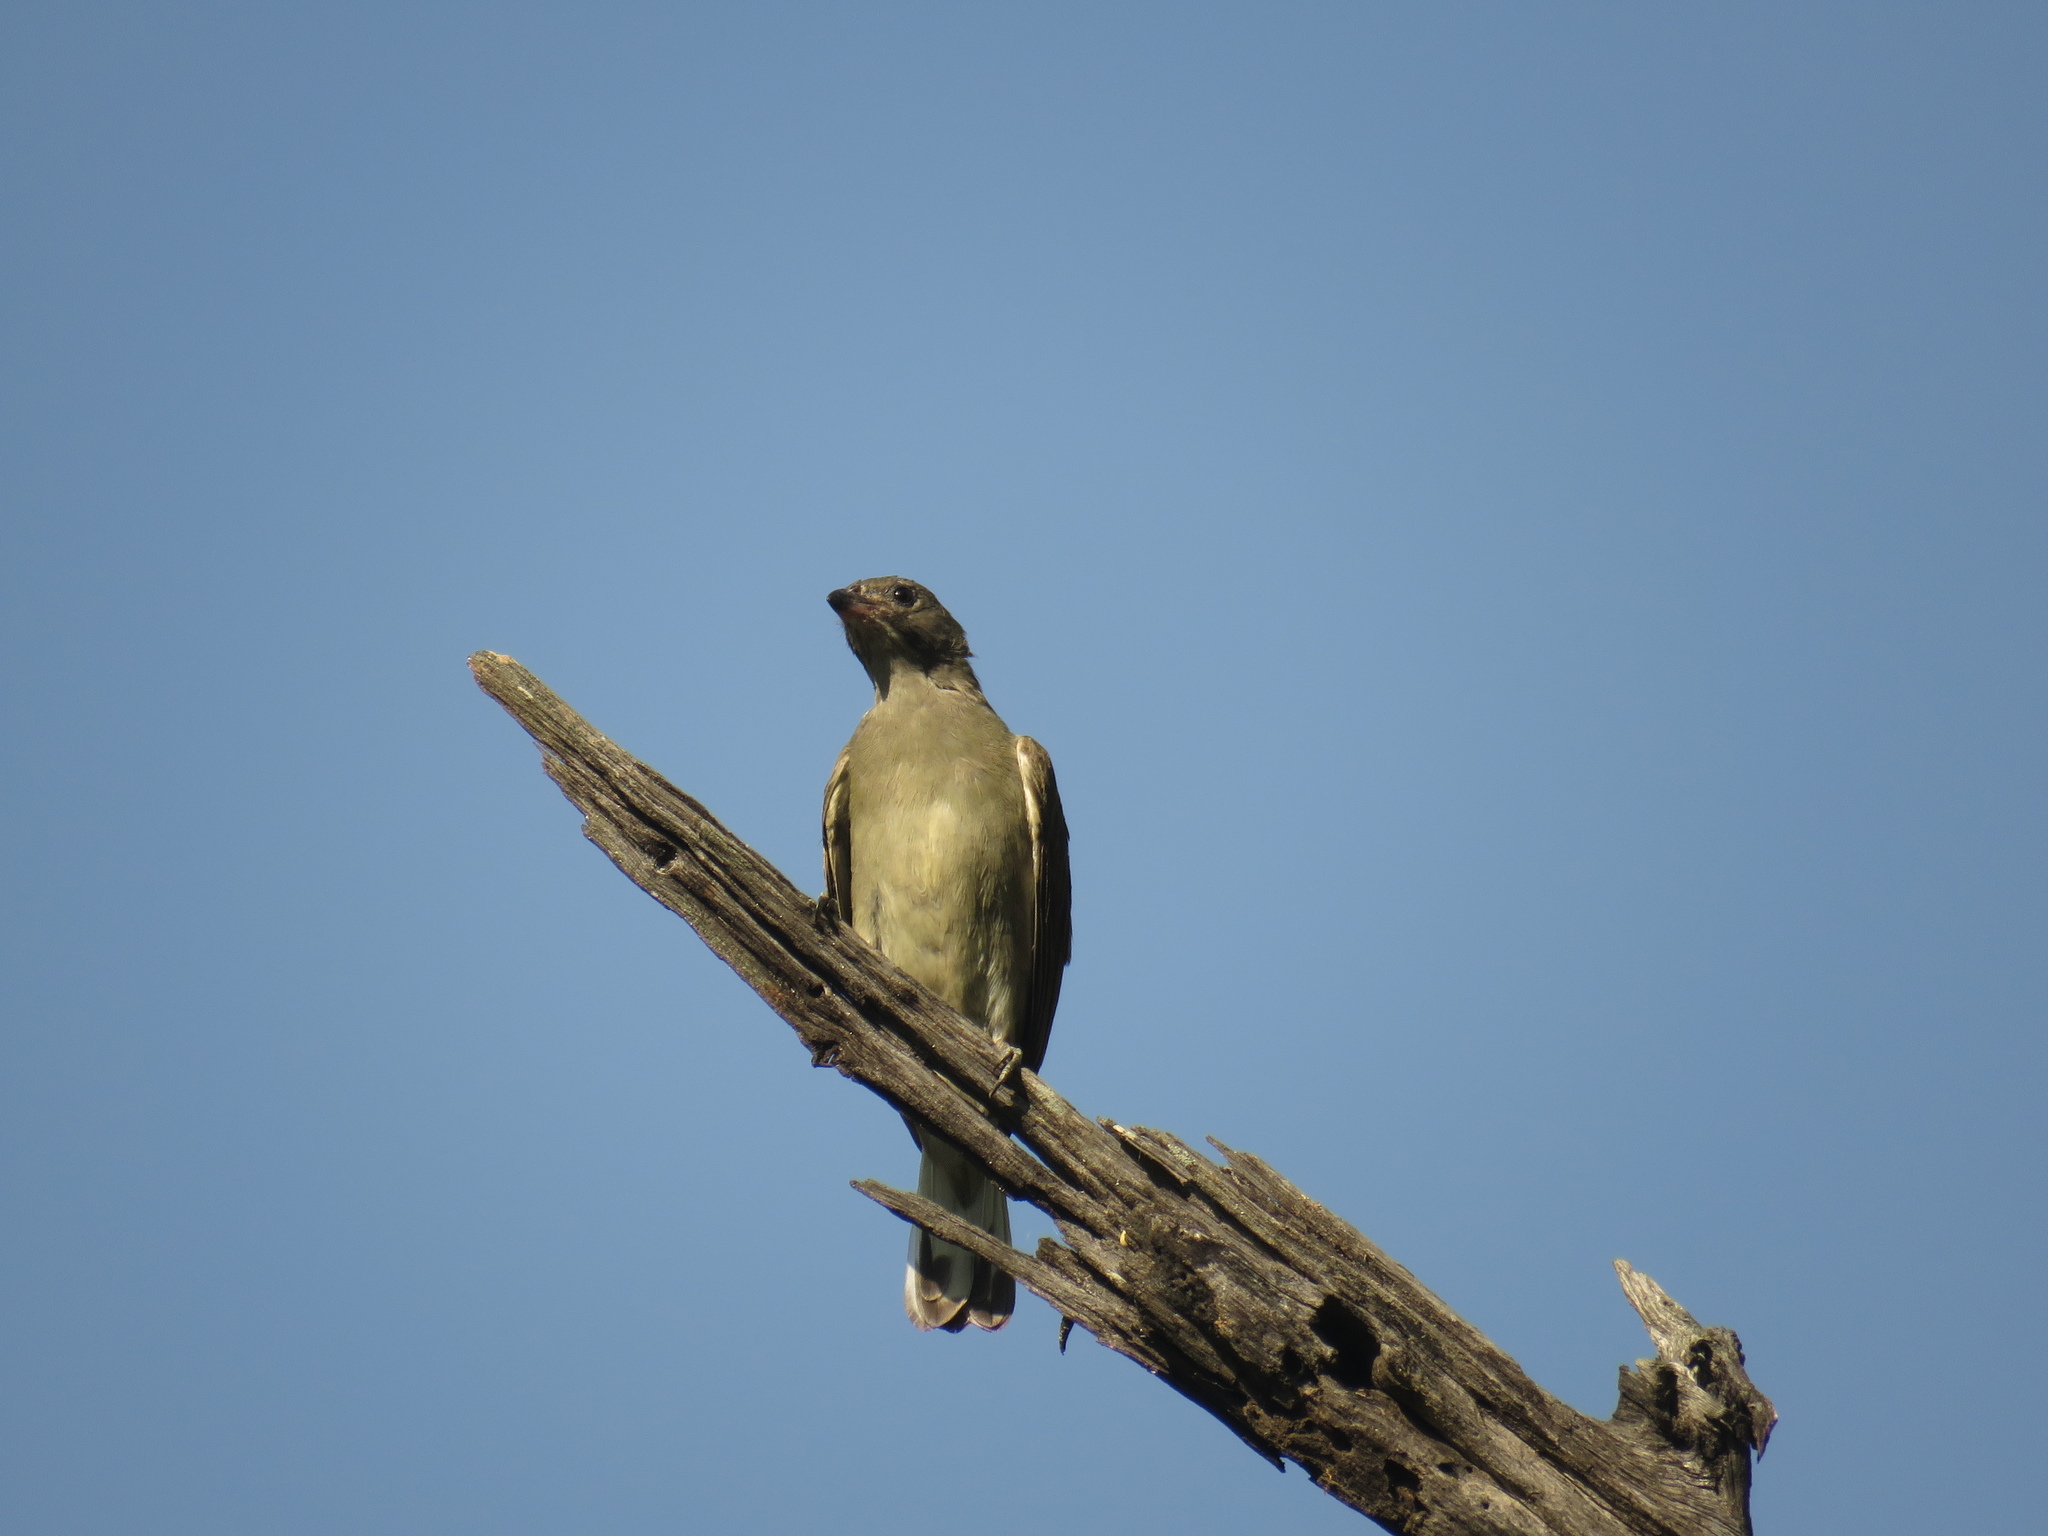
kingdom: Animalia
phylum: Chordata
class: Aves
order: Piciformes
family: Indicatoridae
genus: Indicator
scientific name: Indicator minor
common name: Lesser honeyguide
